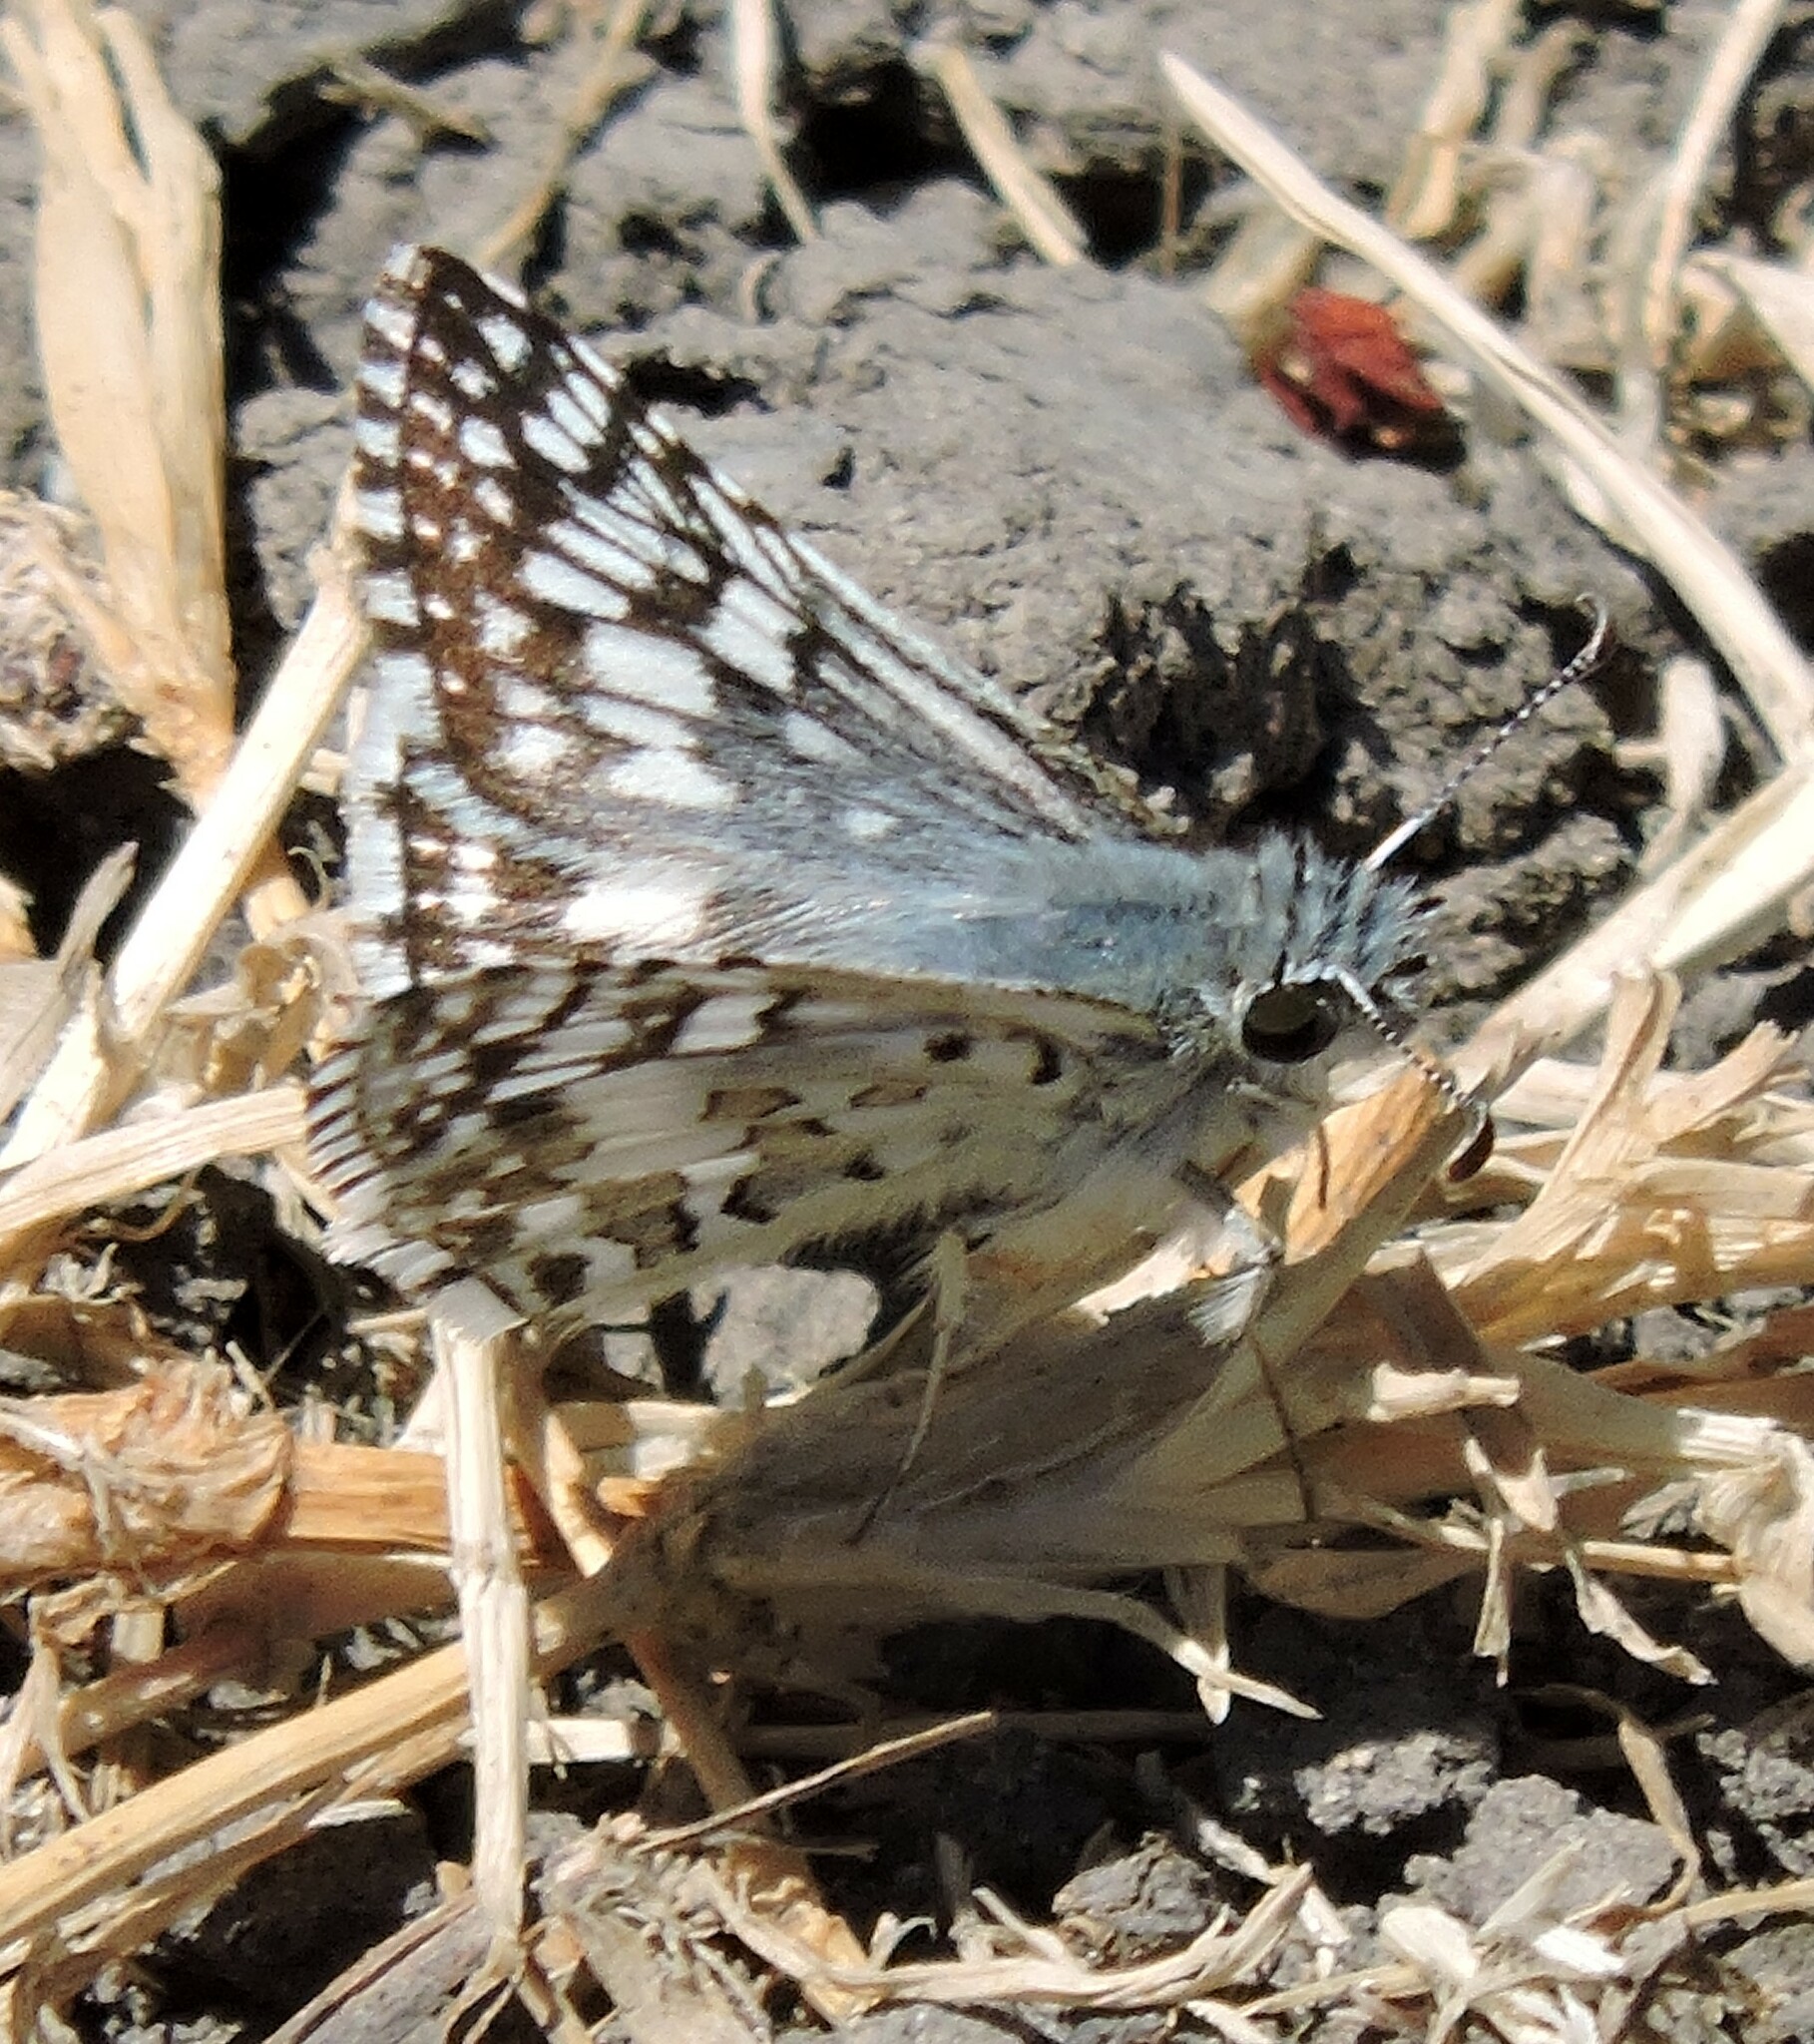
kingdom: Animalia
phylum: Arthropoda
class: Insecta
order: Lepidoptera
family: Hesperiidae
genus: Burnsius
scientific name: Burnsius communis
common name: Common checkered-skipper
